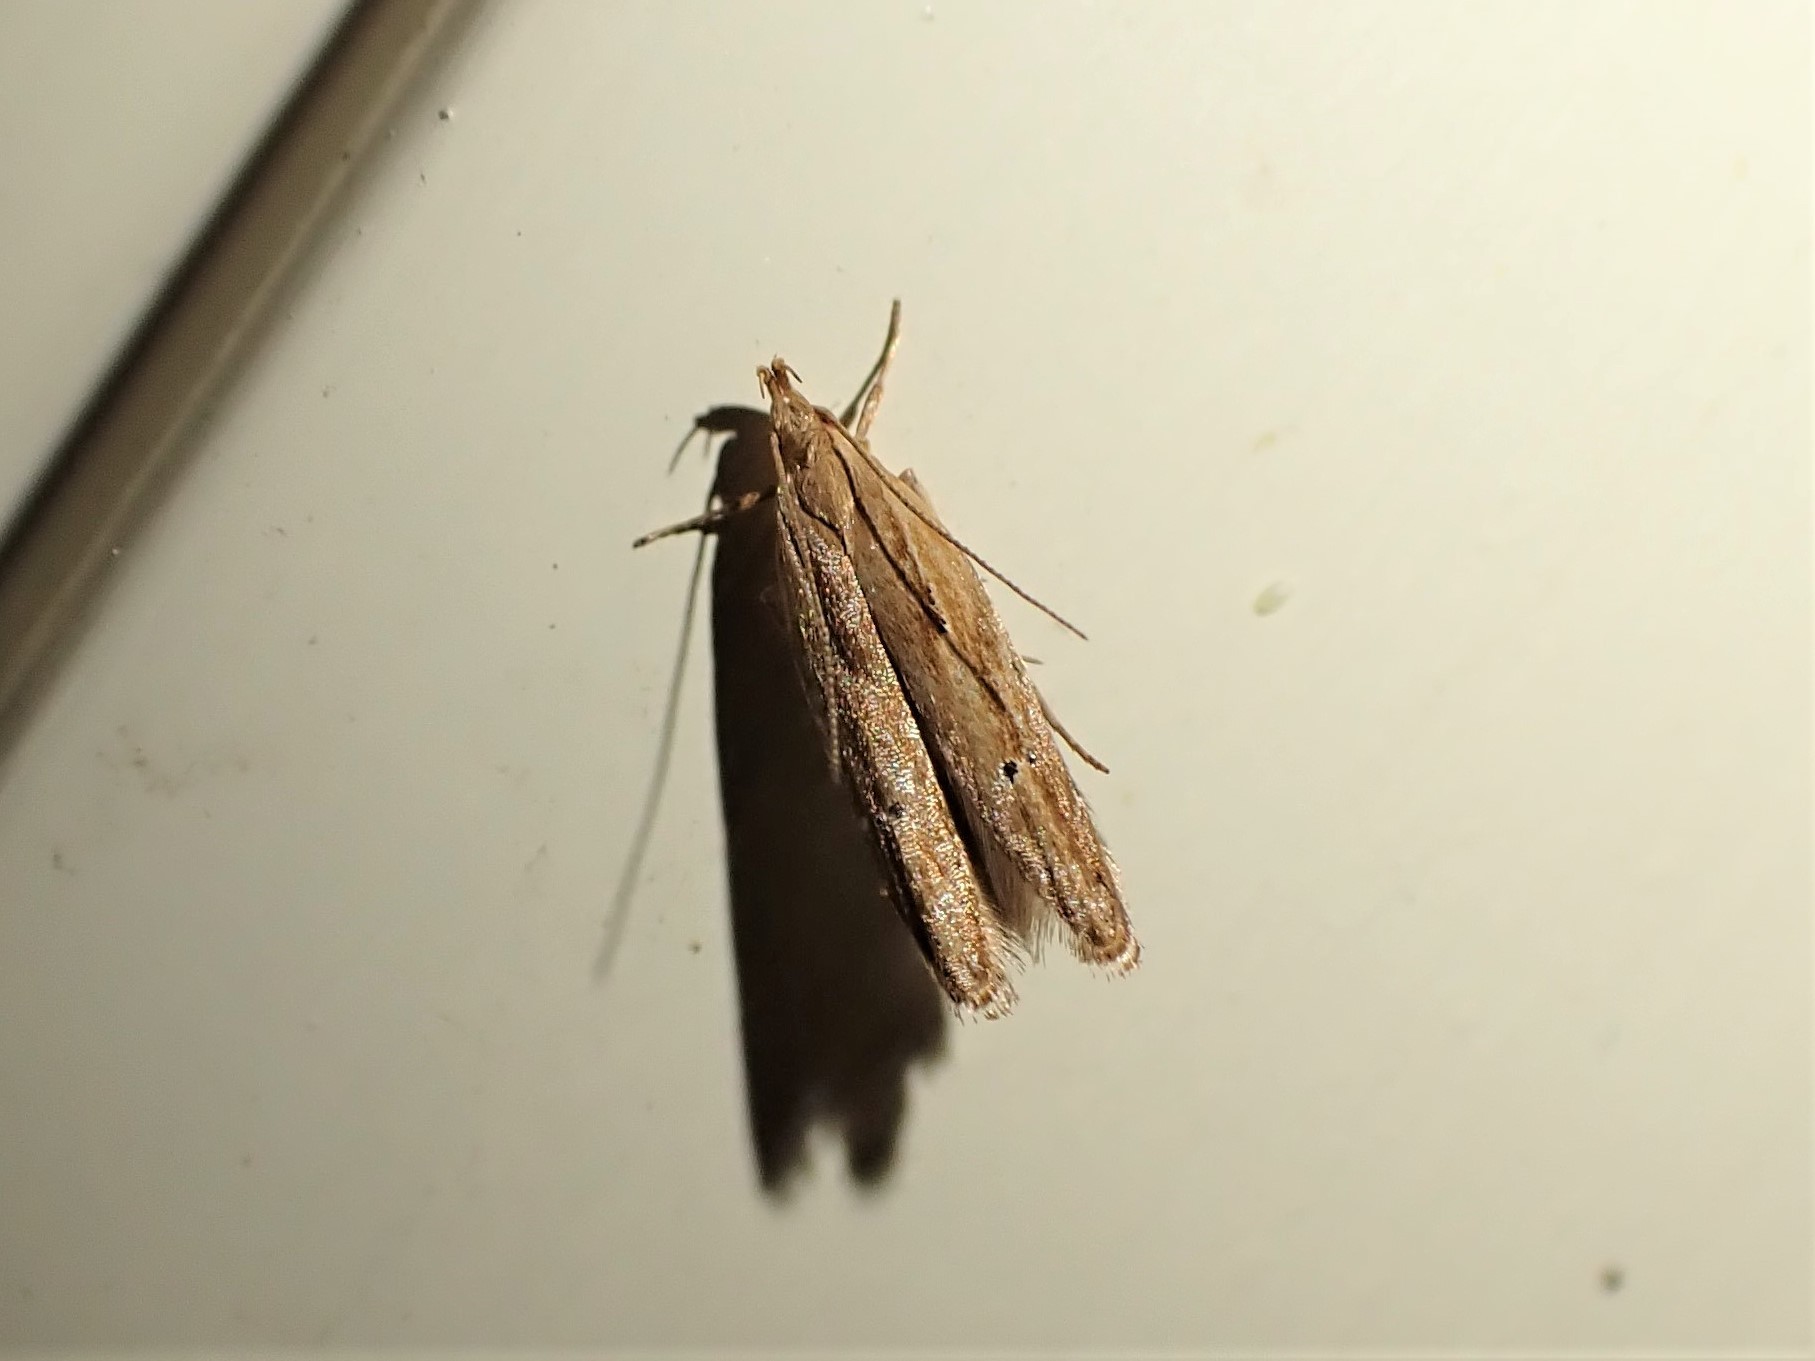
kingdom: Animalia
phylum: Arthropoda
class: Insecta
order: Lepidoptera
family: Depressariidae
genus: Eutorna
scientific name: Eutorna symmorpha
